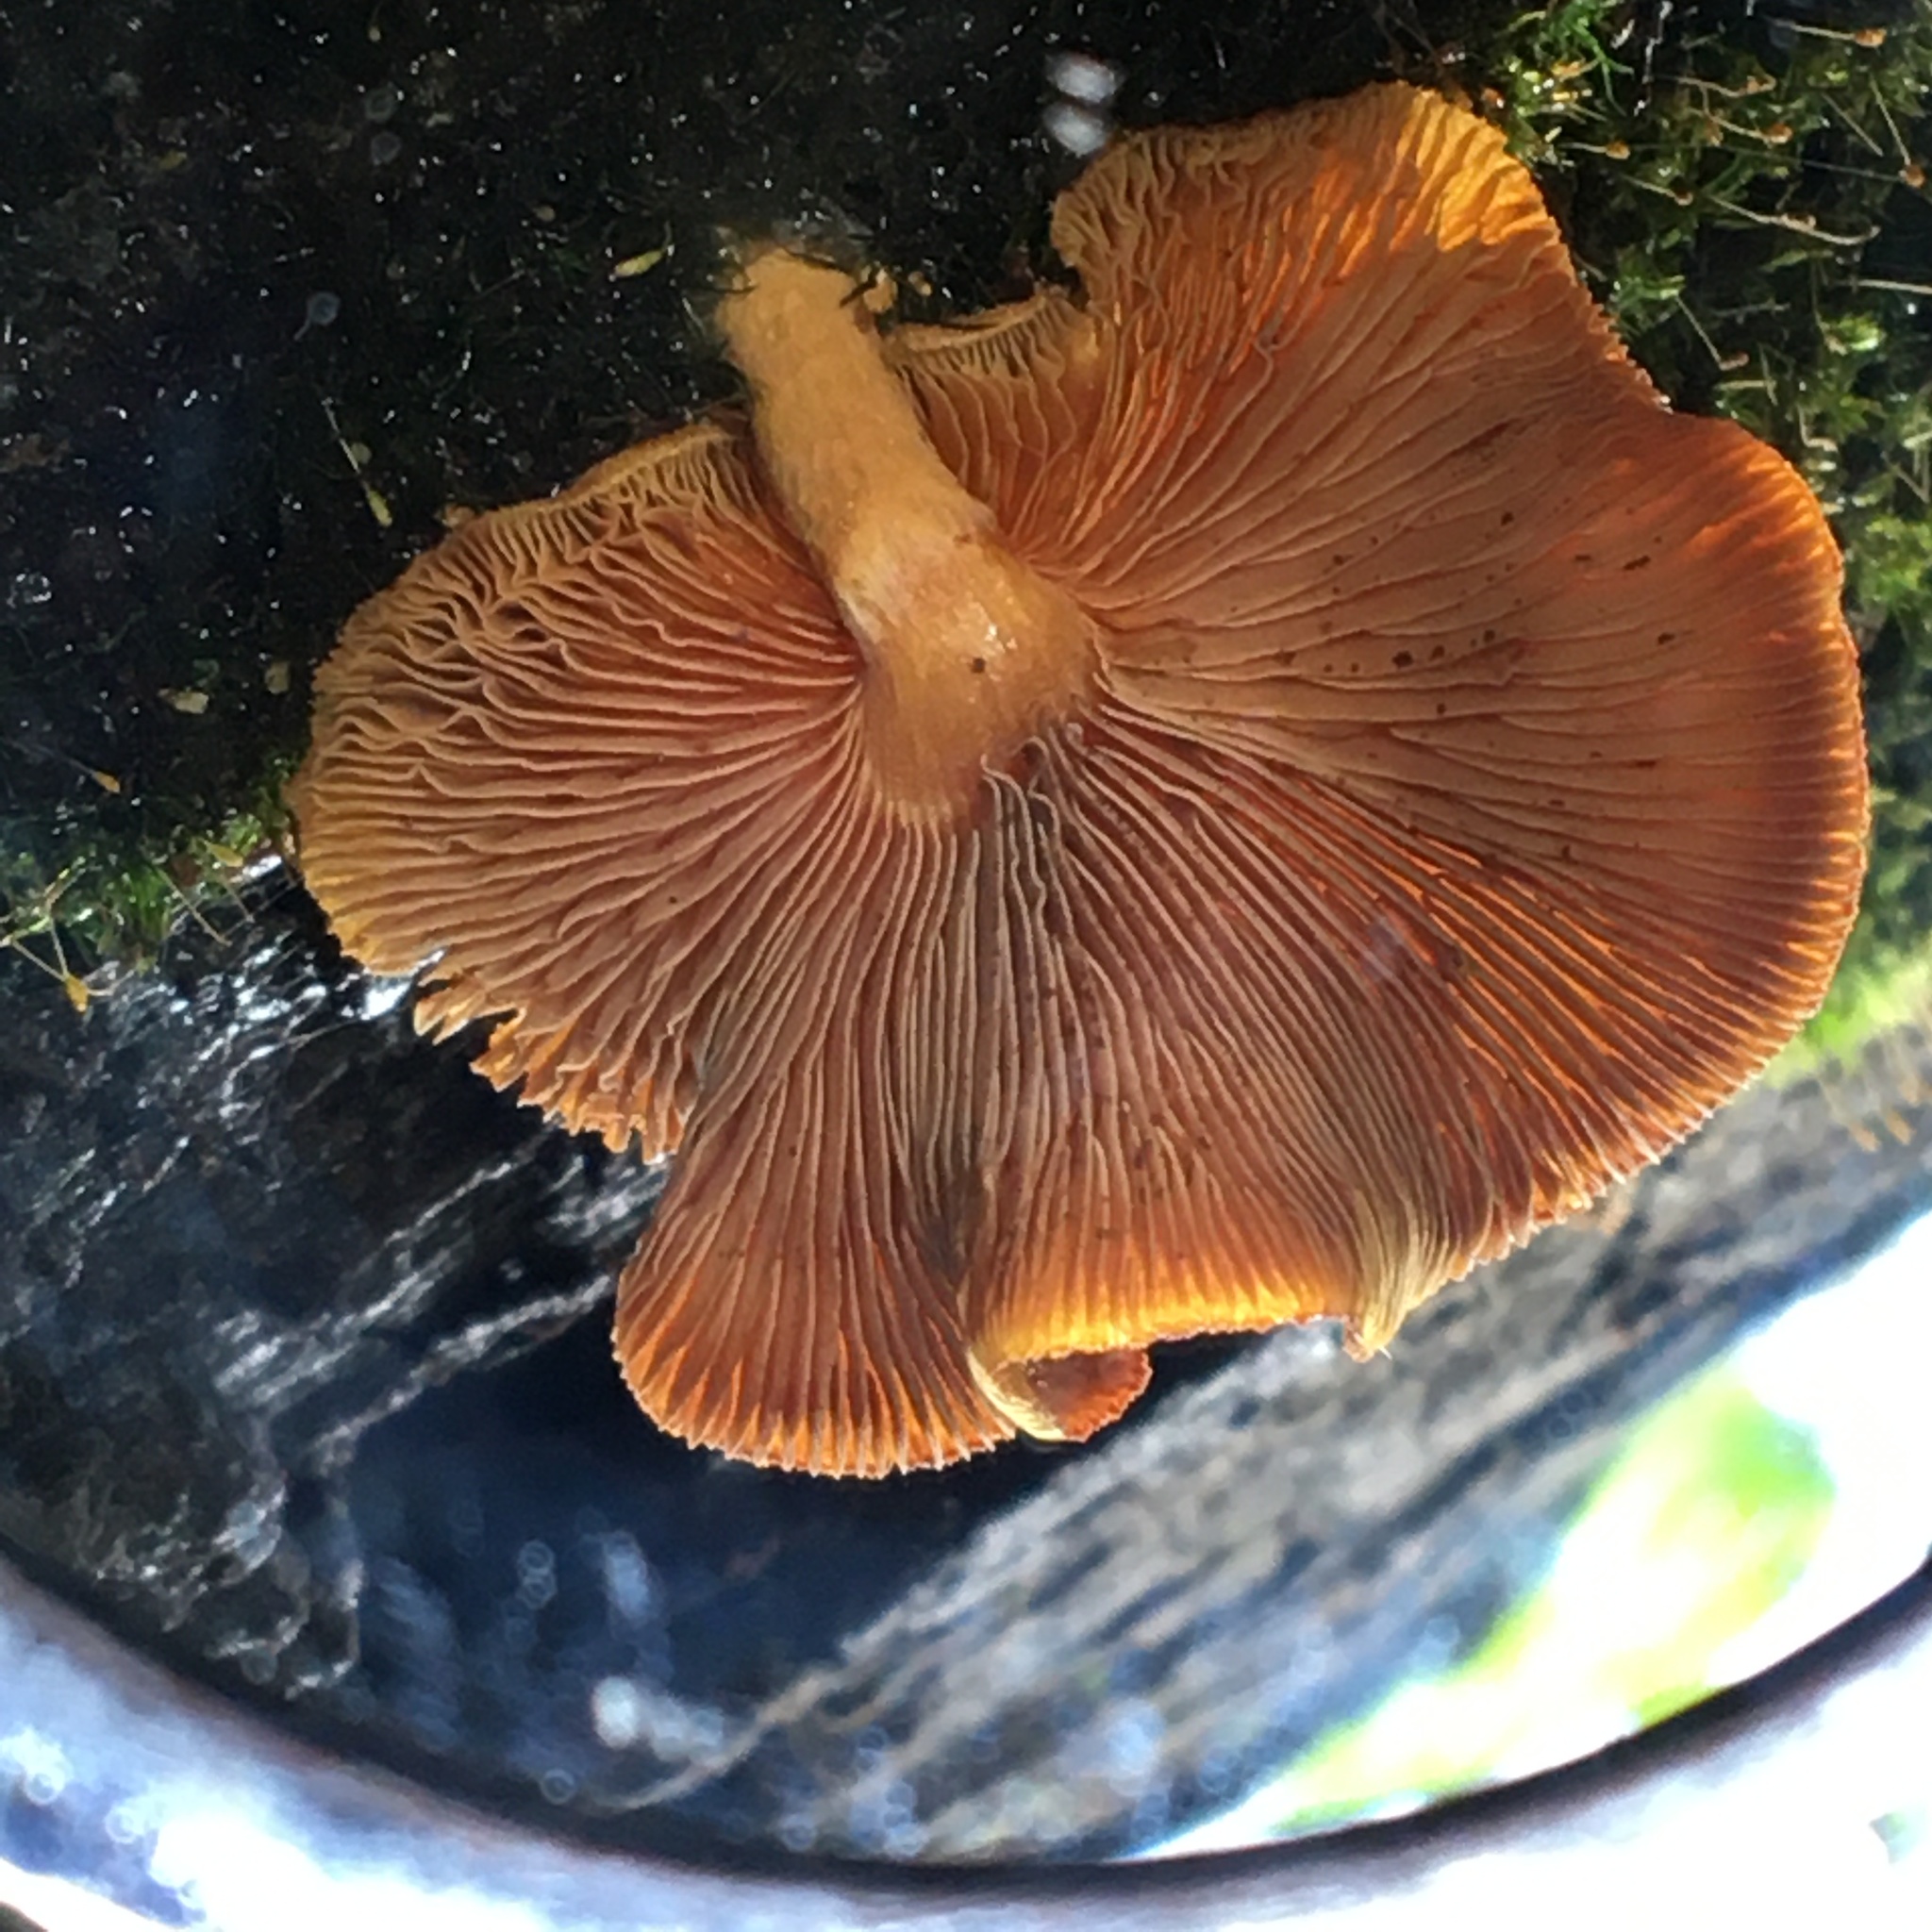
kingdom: Fungi
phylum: Basidiomycota
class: Agaricomycetes
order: Agaricales
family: Hymenogastraceae
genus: Gymnopilus
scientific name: Gymnopilus ferruginosus
